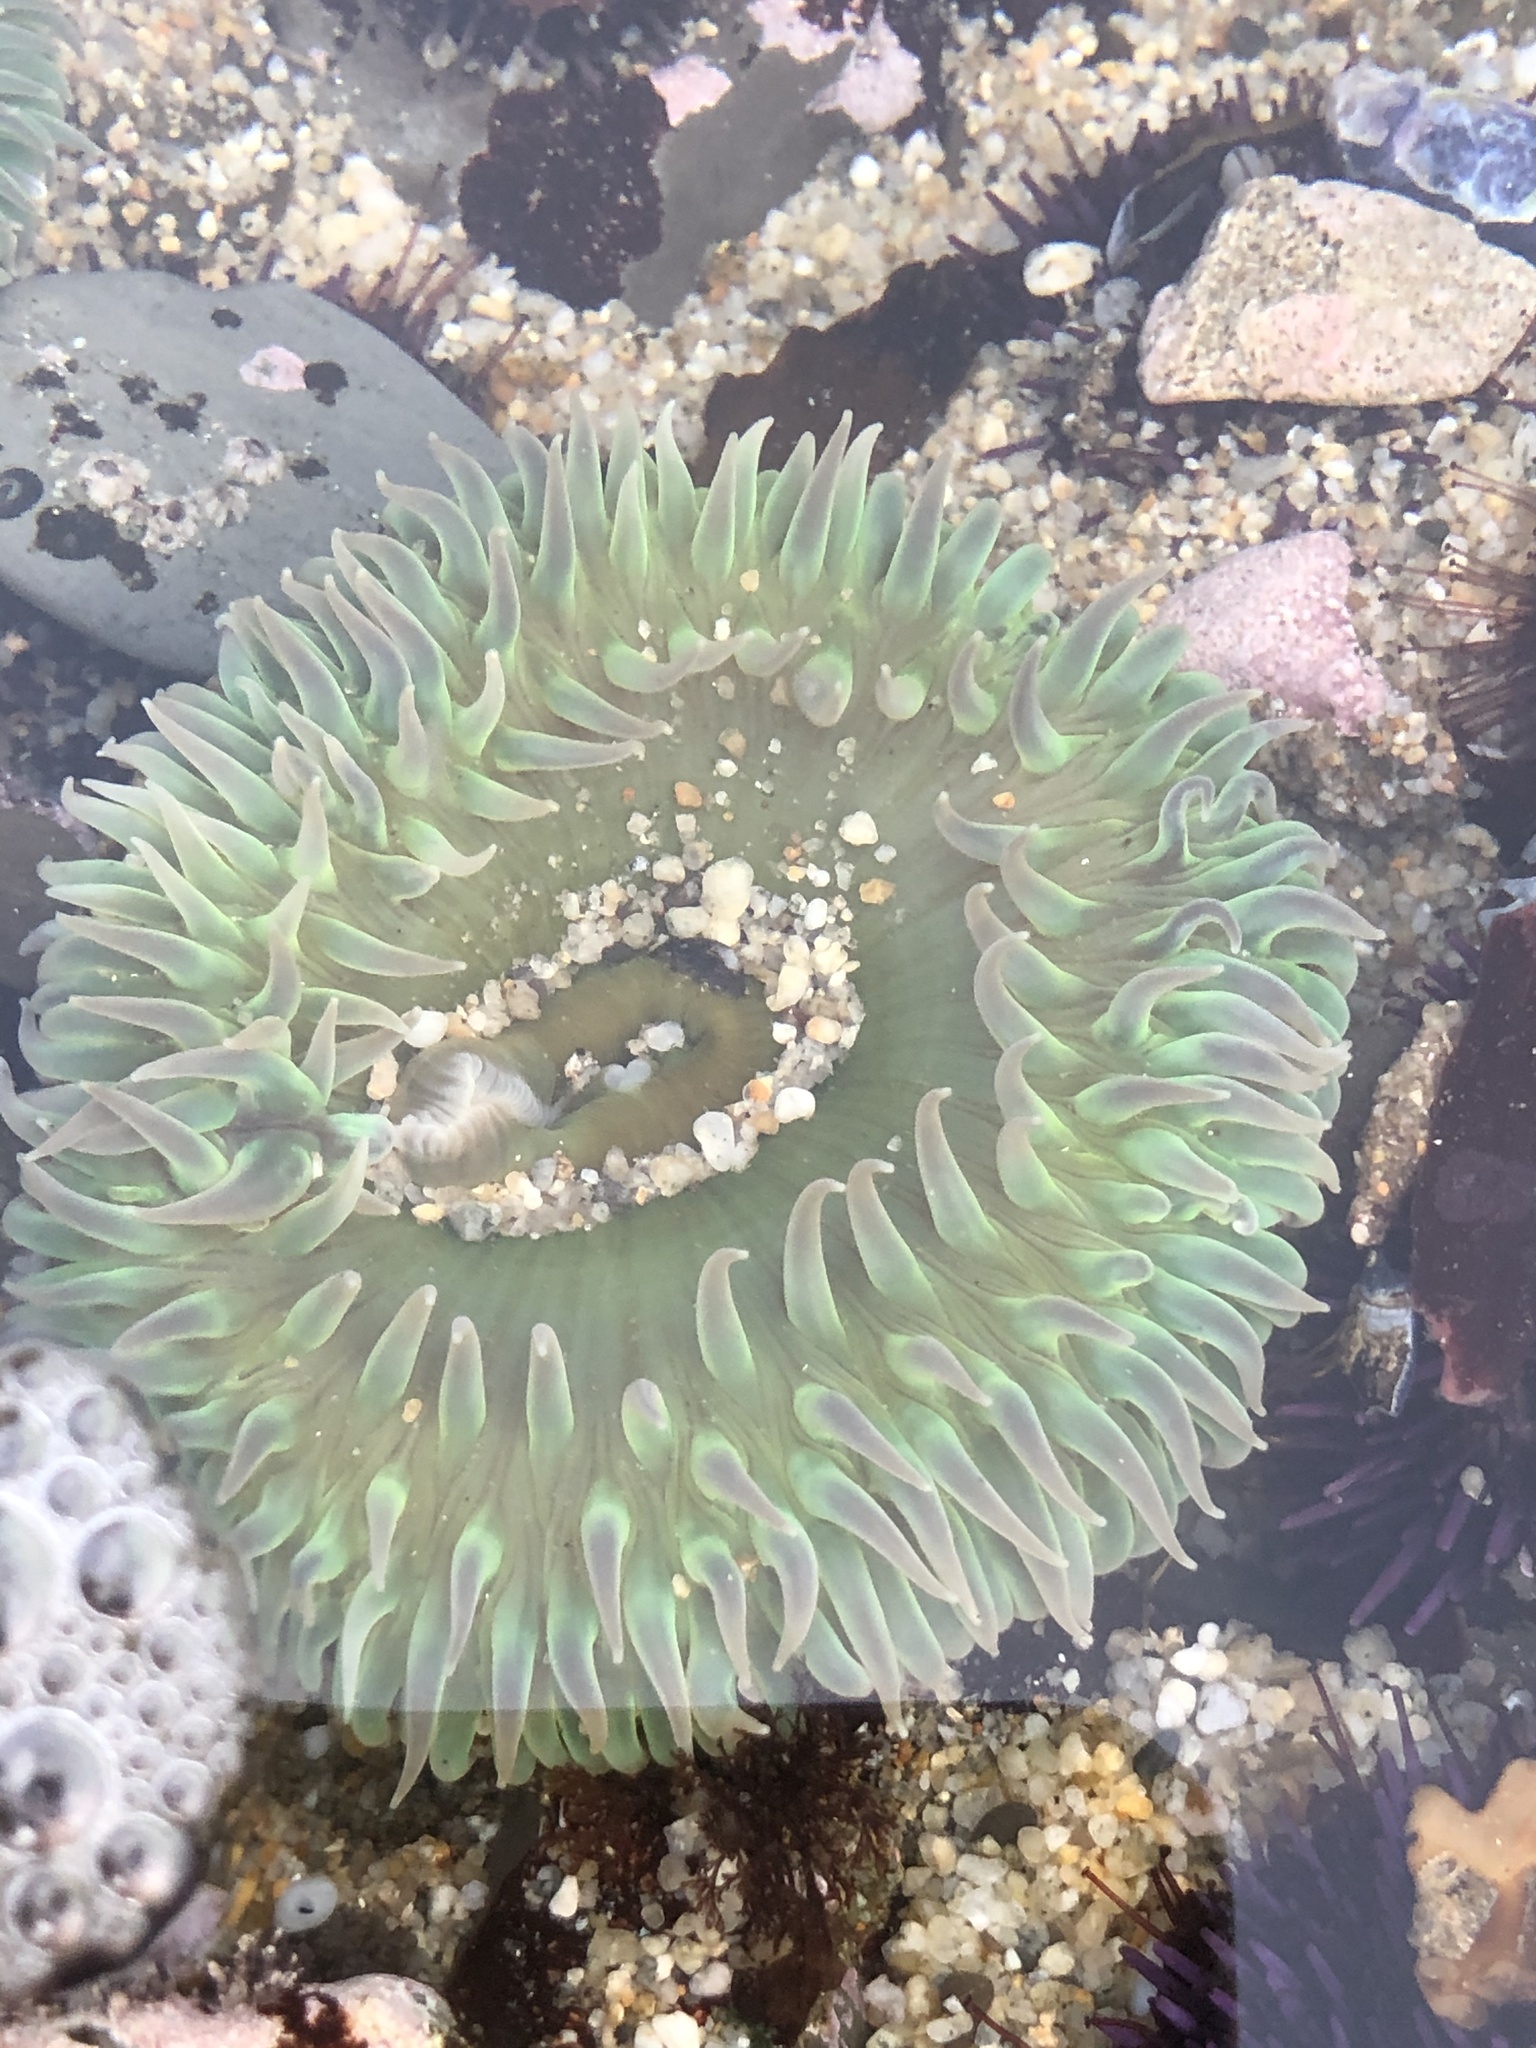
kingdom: Animalia
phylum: Cnidaria
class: Anthozoa
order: Actiniaria
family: Actiniidae
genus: Anthopleura
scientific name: Anthopleura xanthogrammica
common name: Giant green anemone
